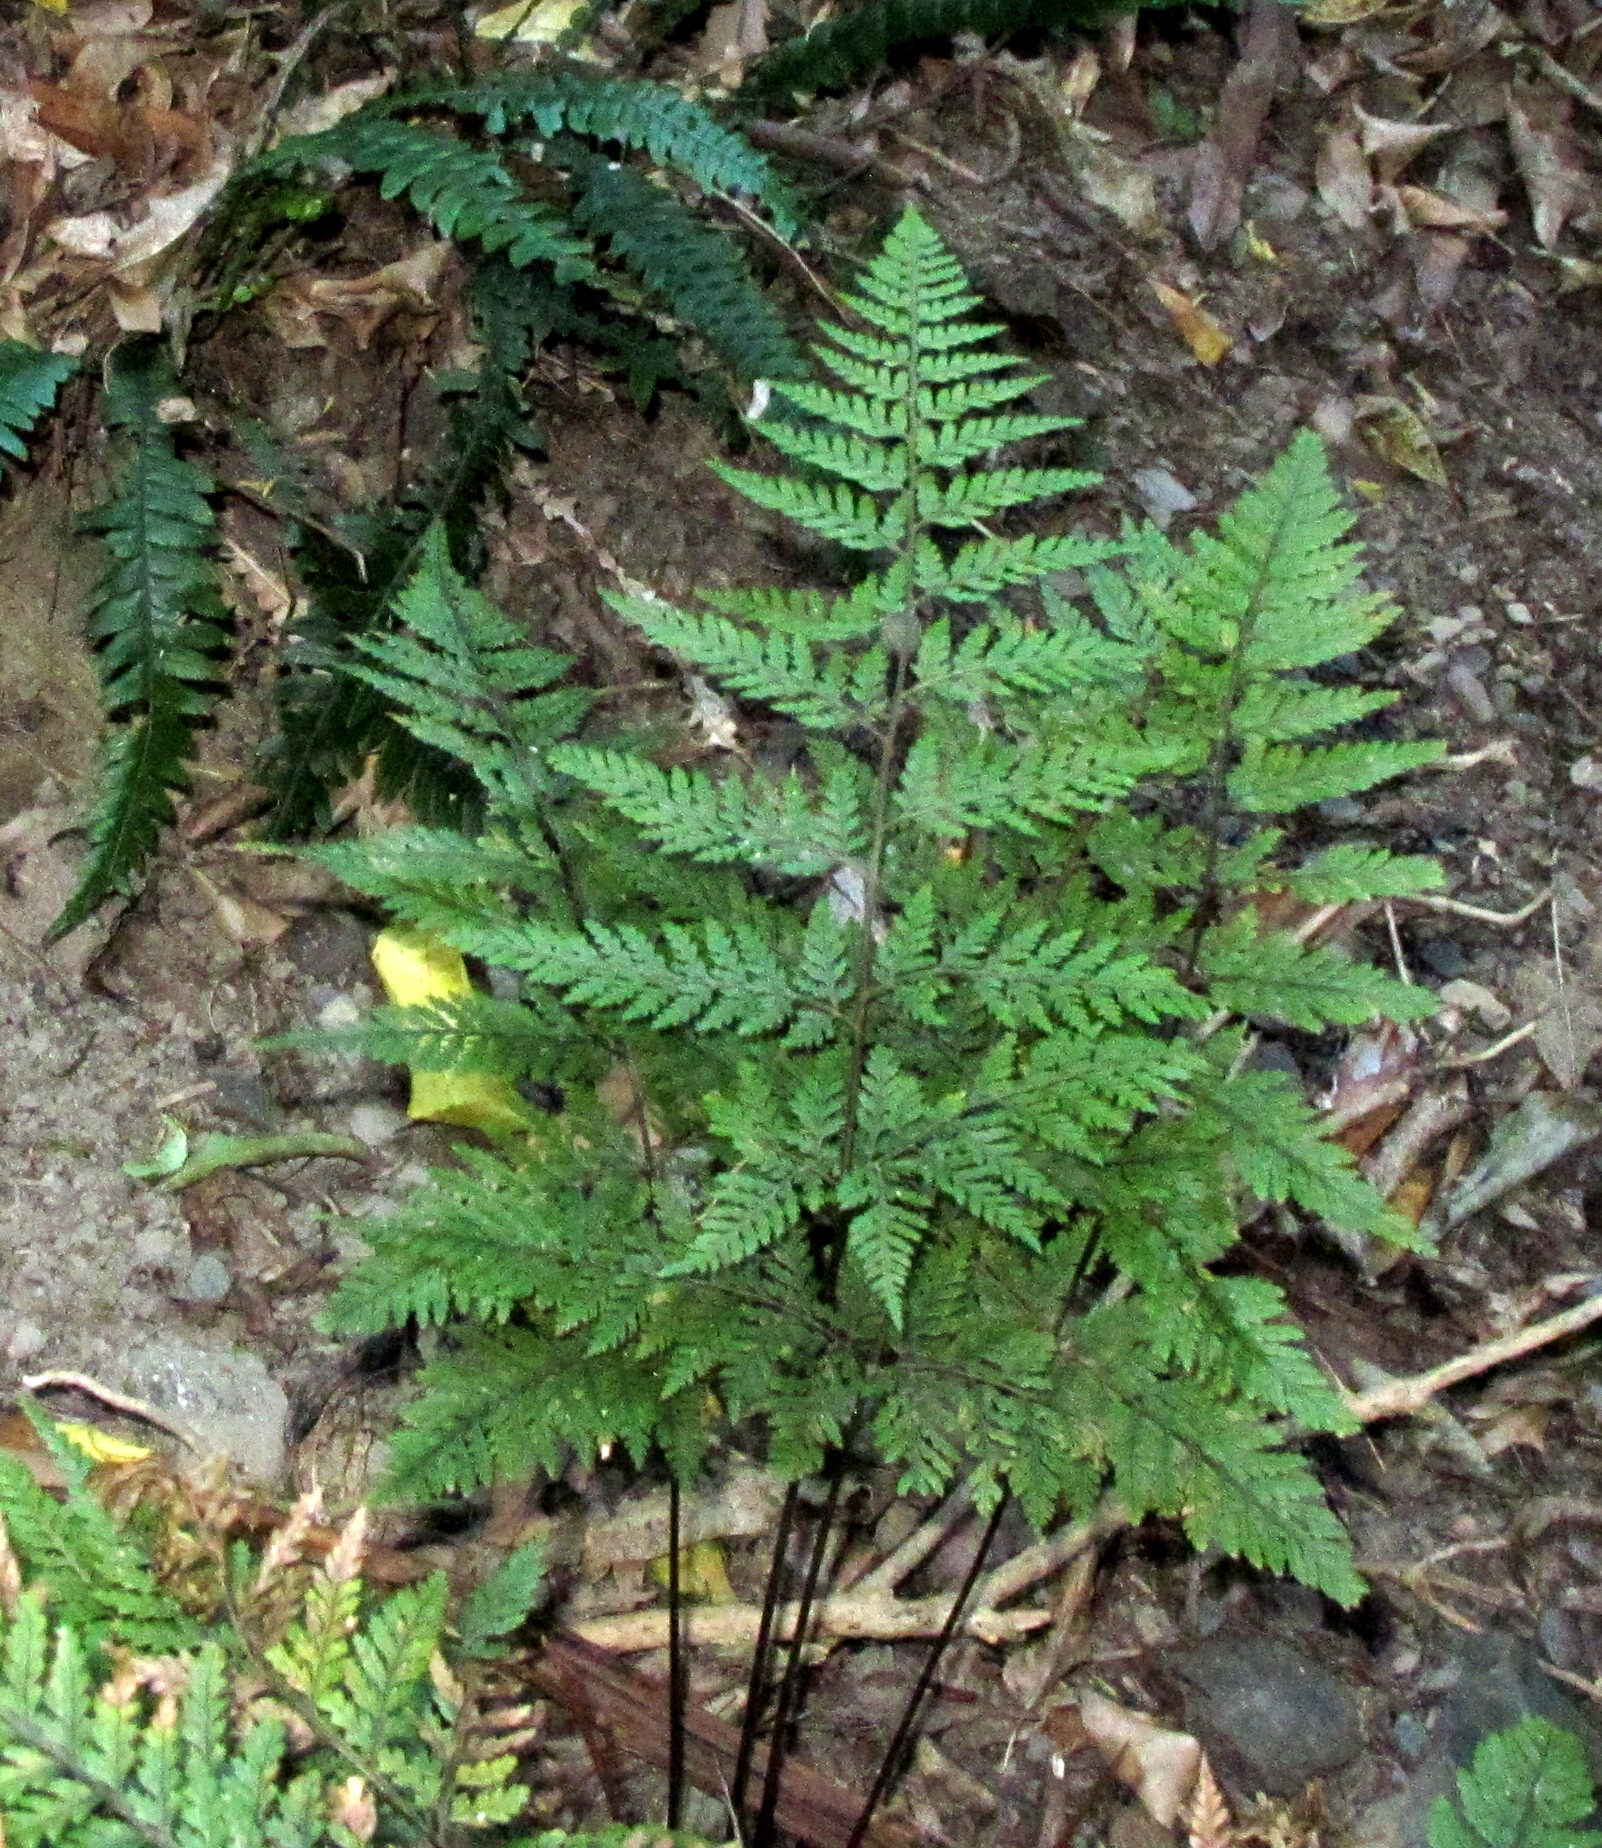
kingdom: Plantae
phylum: Tracheophyta
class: Polypodiopsida
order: Polypodiales
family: Dryopteridaceae
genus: Parapolystichum
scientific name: Parapolystichum glabellum
